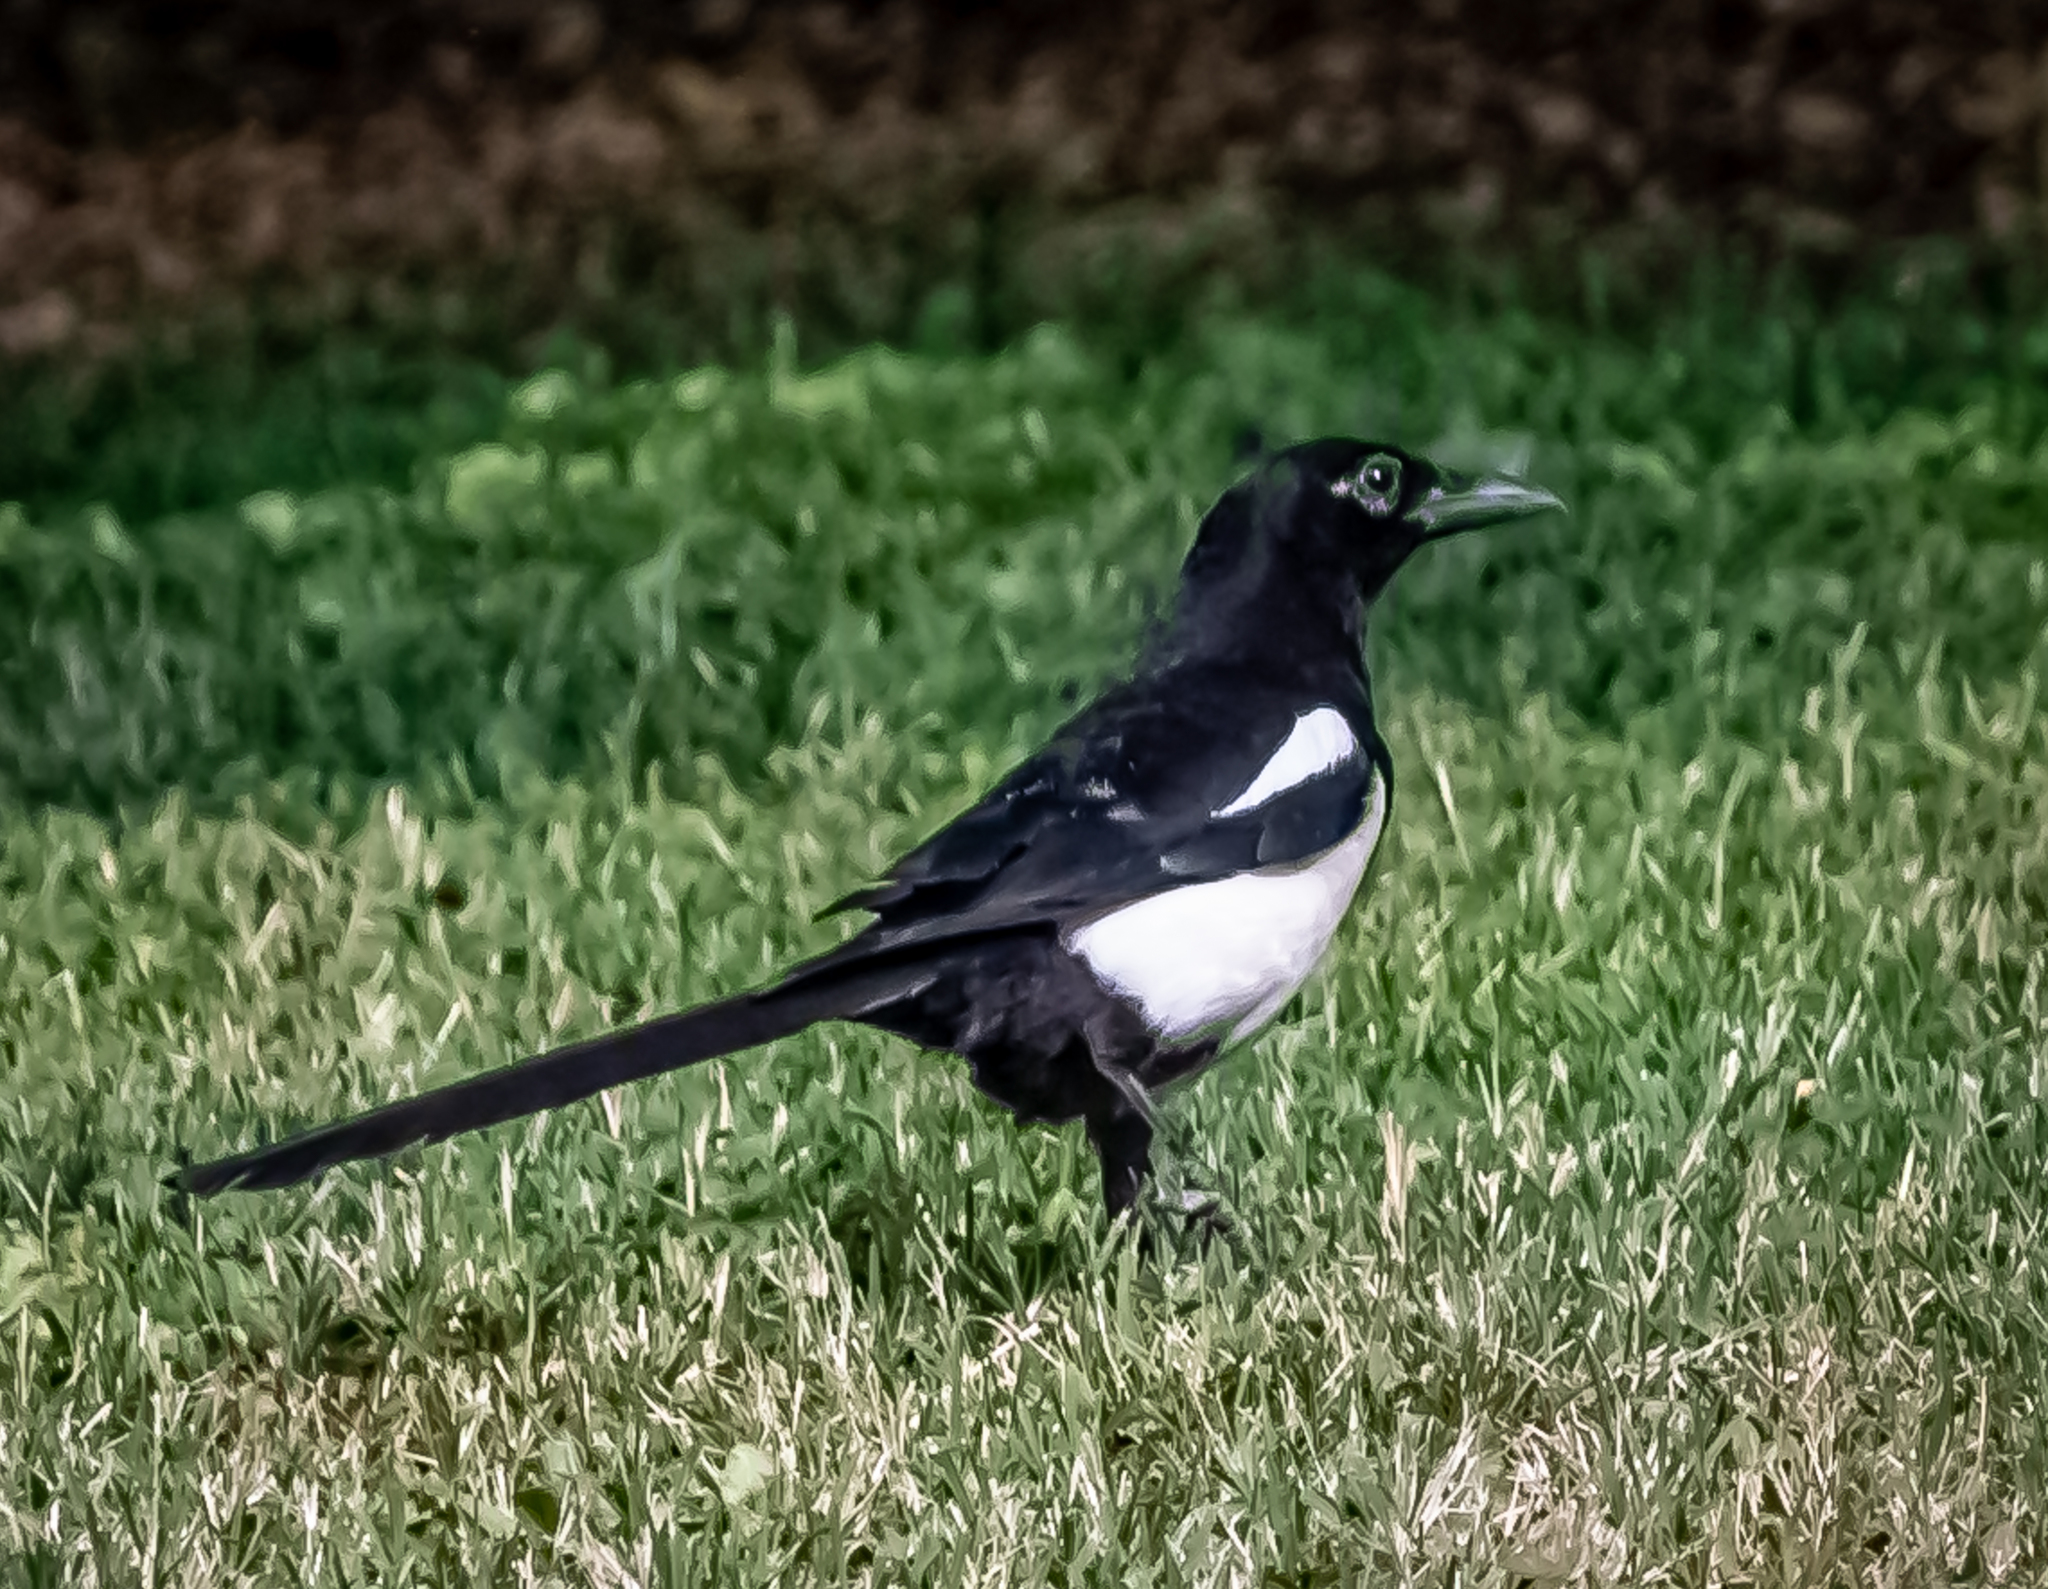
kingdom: Animalia
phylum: Chordata
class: Aves
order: Passeriformes
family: Corvidae
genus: Pica
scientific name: Pica pica
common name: Eurasian magpie
